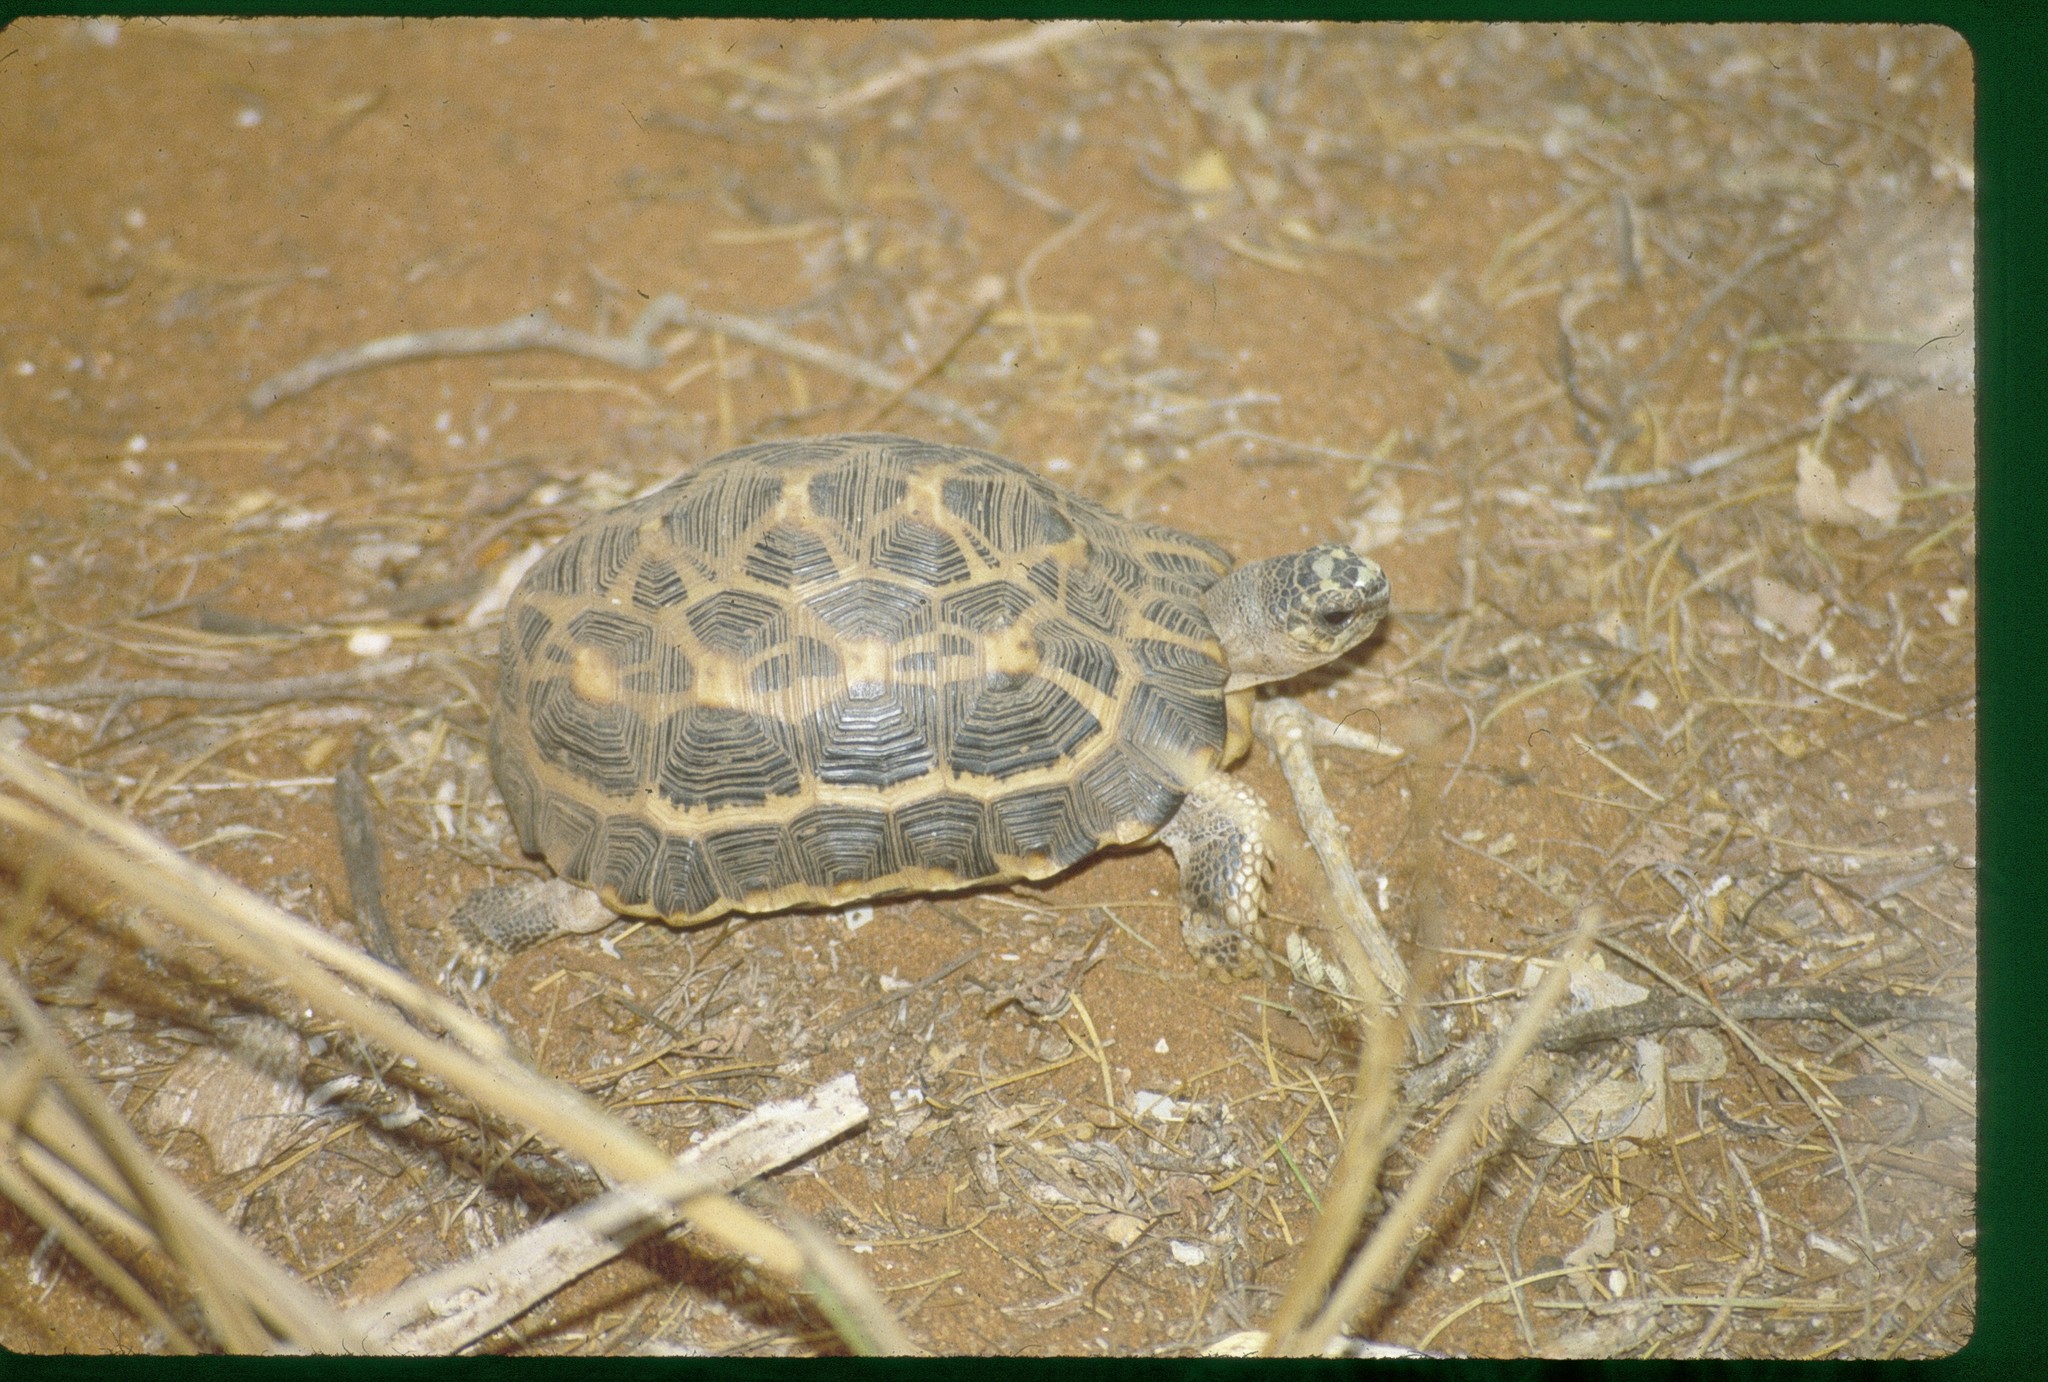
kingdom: Animalia
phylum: Chordata
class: Testudines
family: Testudinidae
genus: Pyxis
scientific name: Pyxis arachnoides
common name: Common spider tortoise
